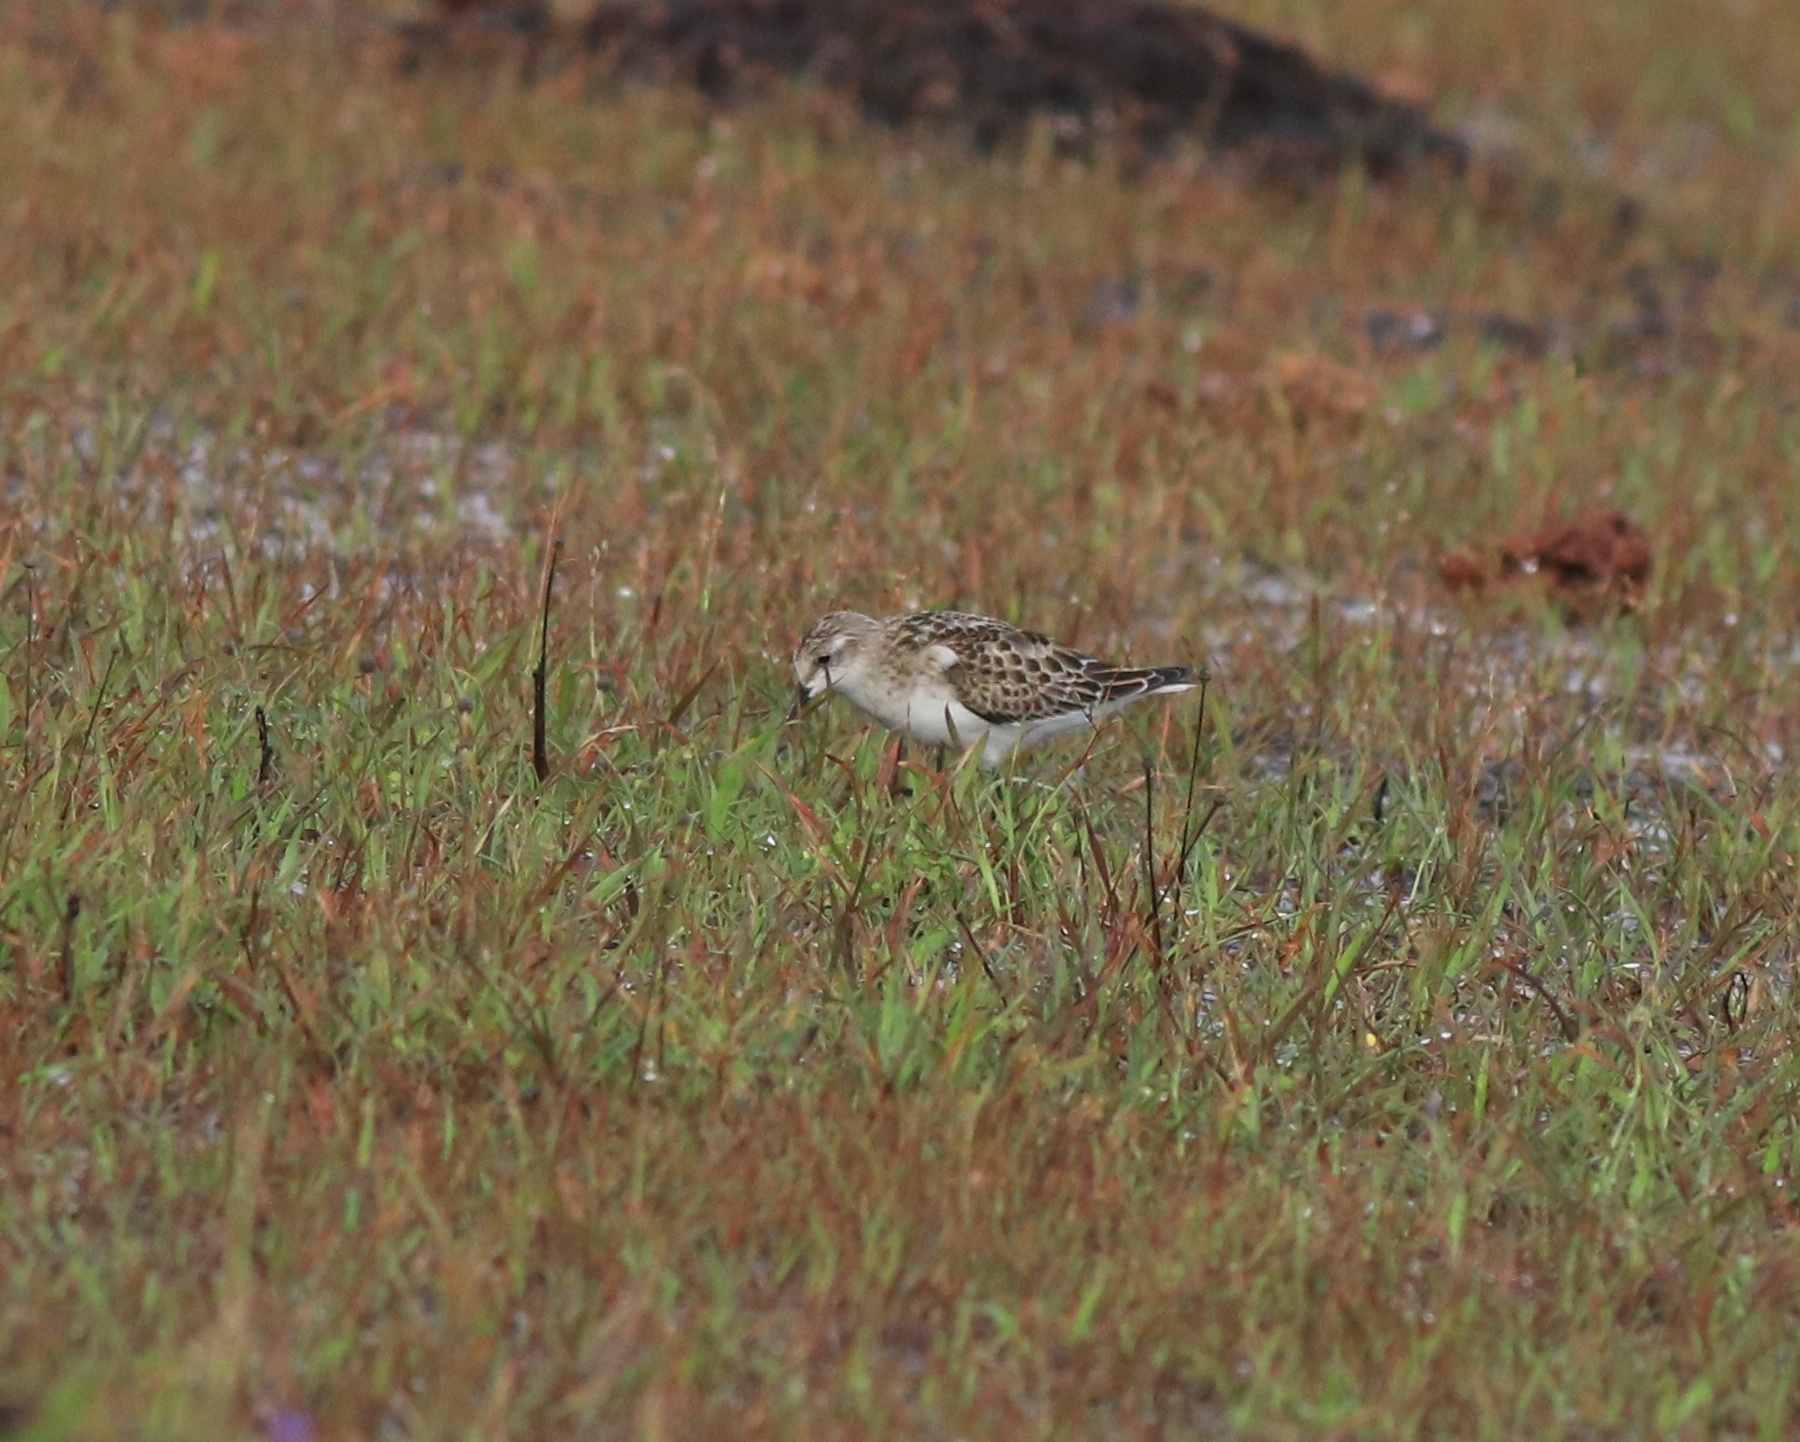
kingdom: Animalia
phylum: Chordata
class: Aves
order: Charadriiformes
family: Scolopacidae
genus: Calidris
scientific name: Calidris minuta
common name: Little stint
